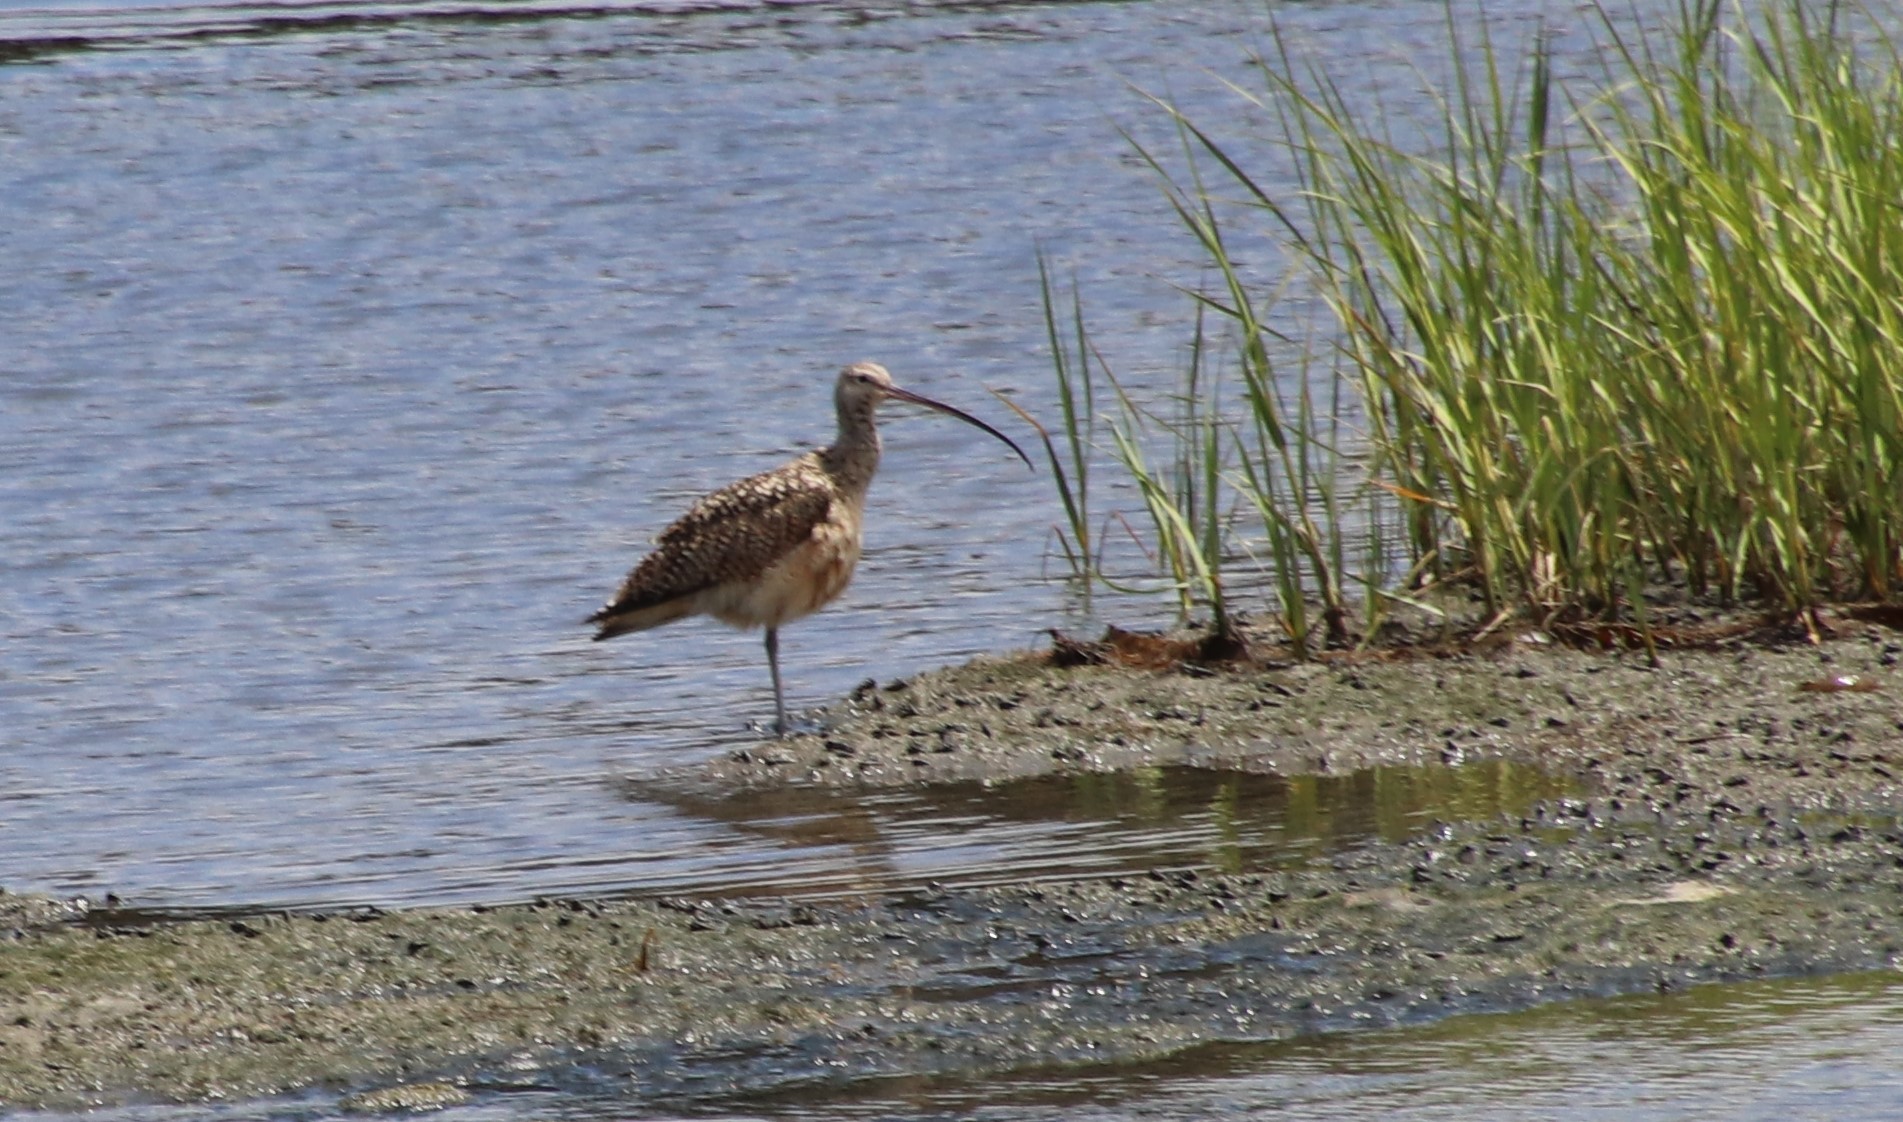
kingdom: Animalia
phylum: Chordata
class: Aves
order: Charadriiformes
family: Scolopacidae
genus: Numenius
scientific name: Numenius americanus
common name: Long-billed curlew
